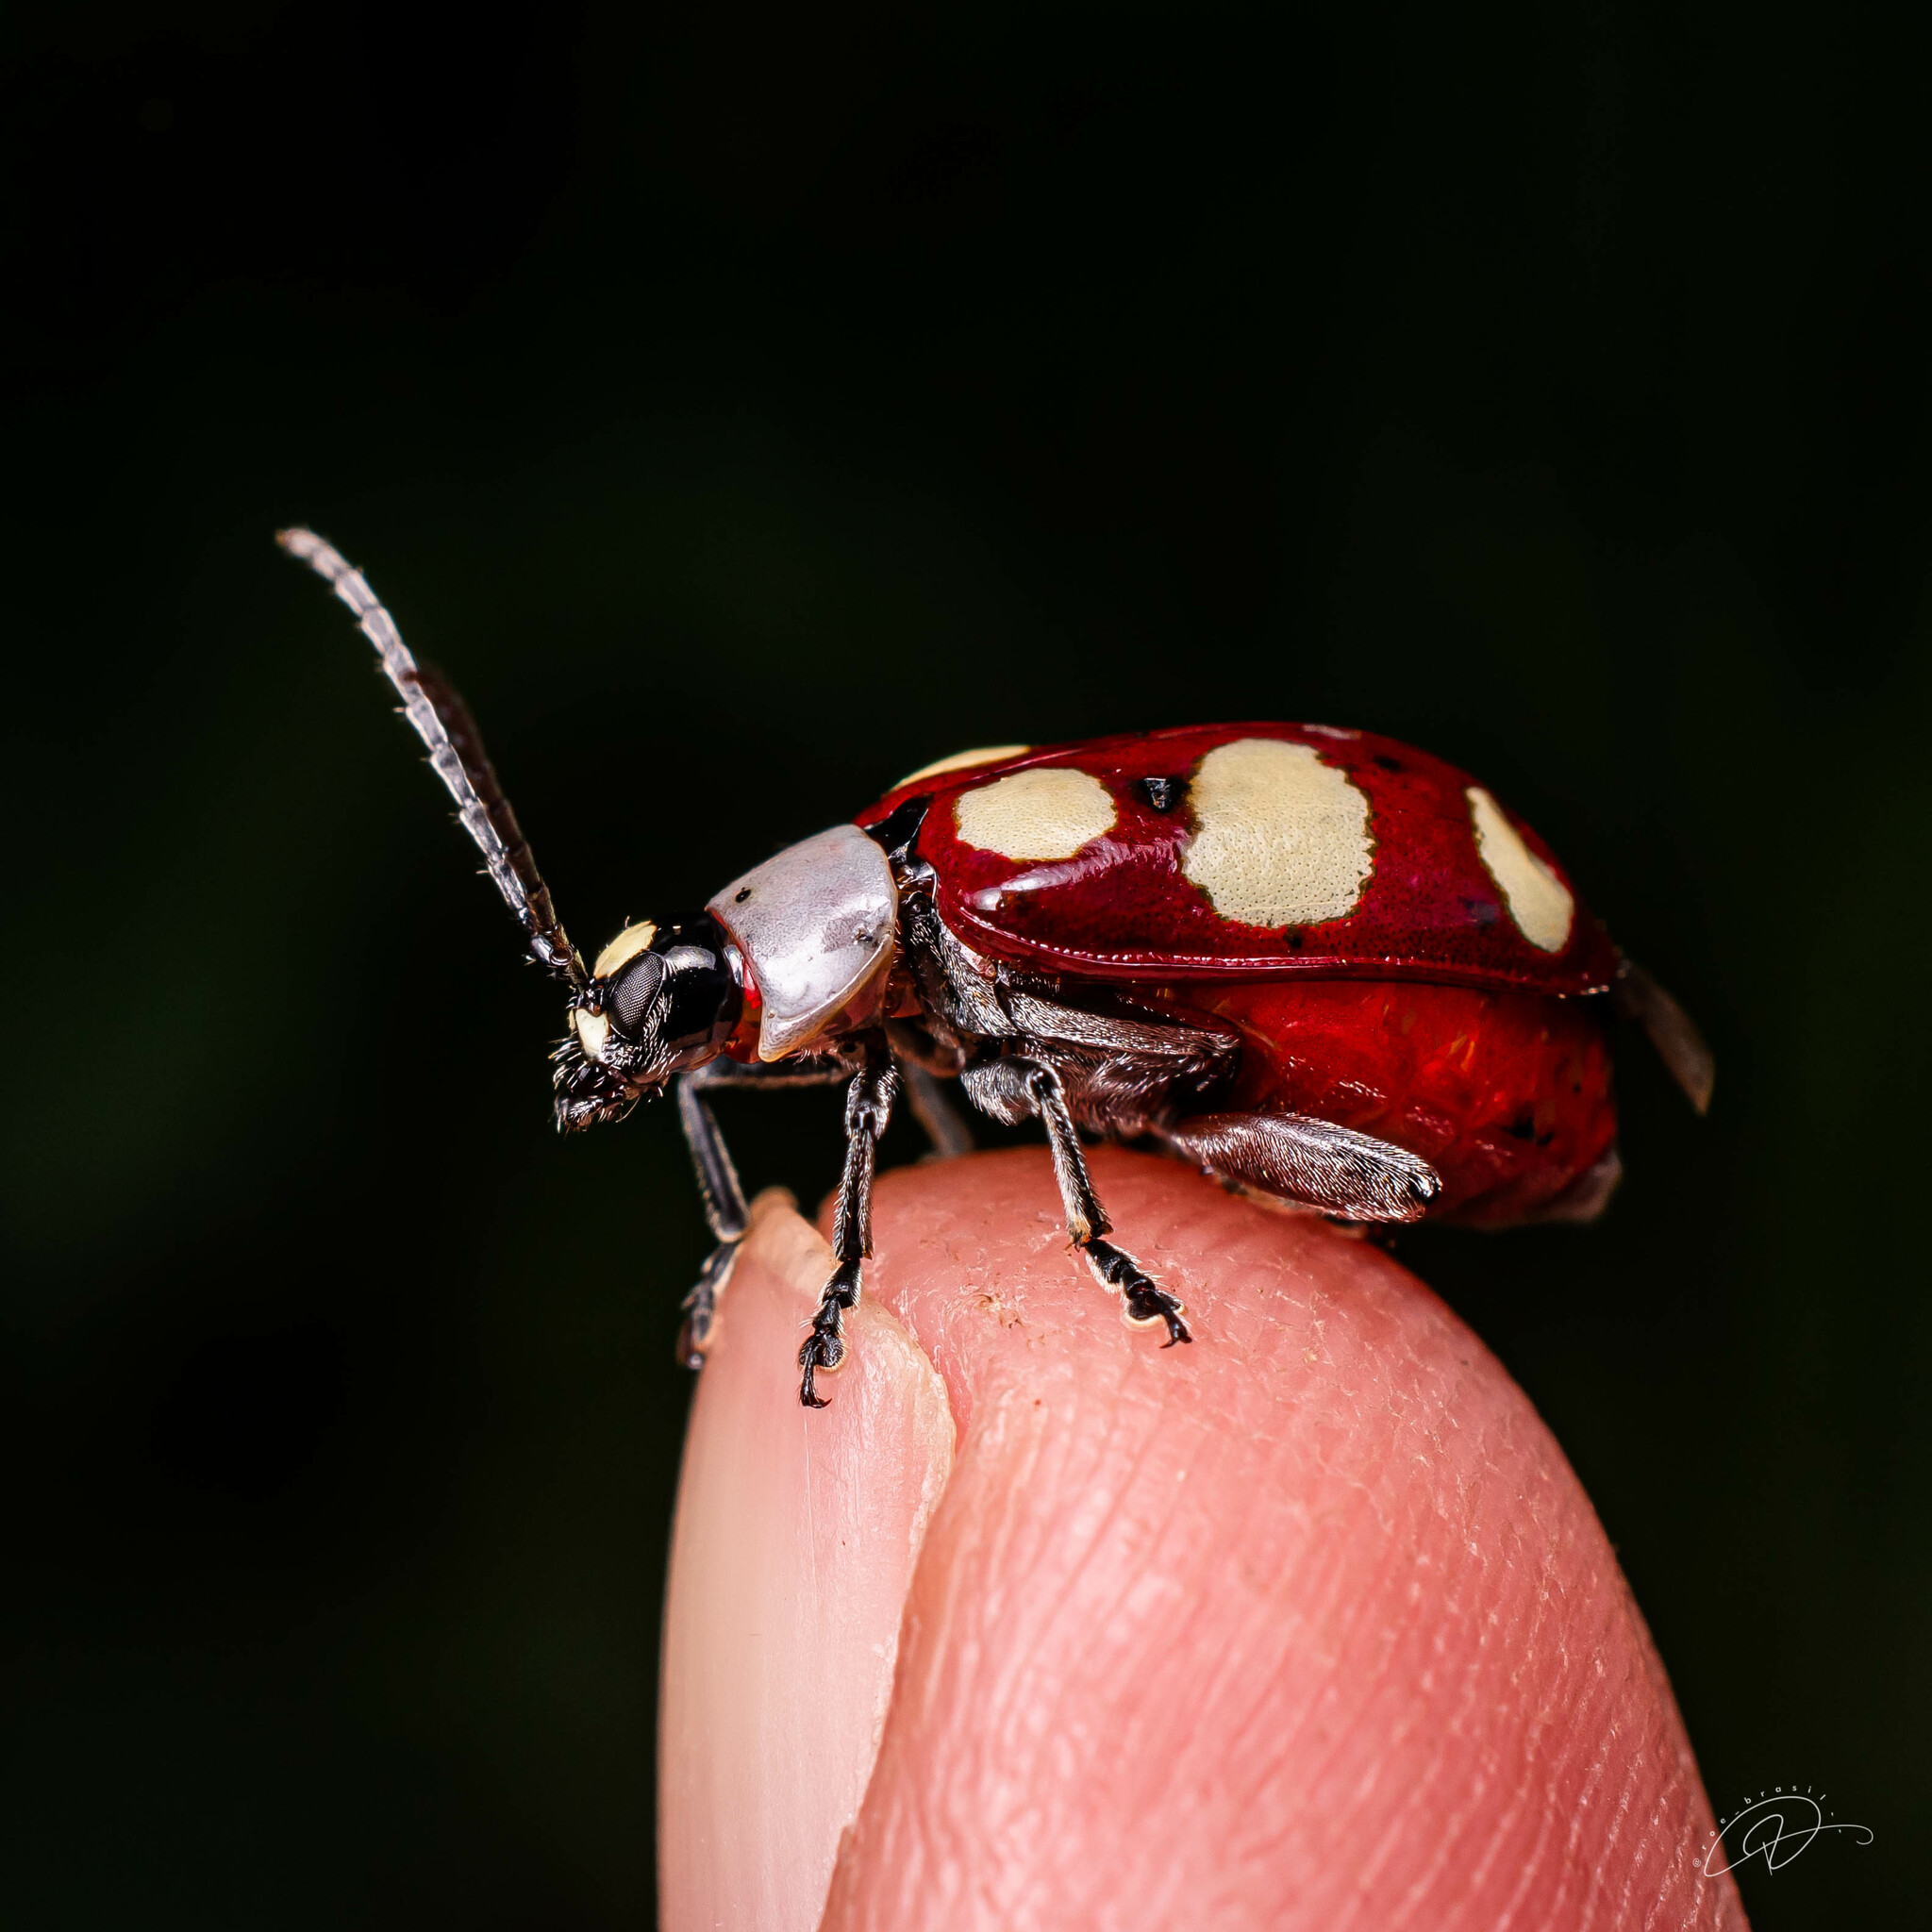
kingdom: Animalia
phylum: Arthropoda
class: Insecta
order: Coleoptera
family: Chrysomelidae
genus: Omophoita
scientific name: Omophoita
